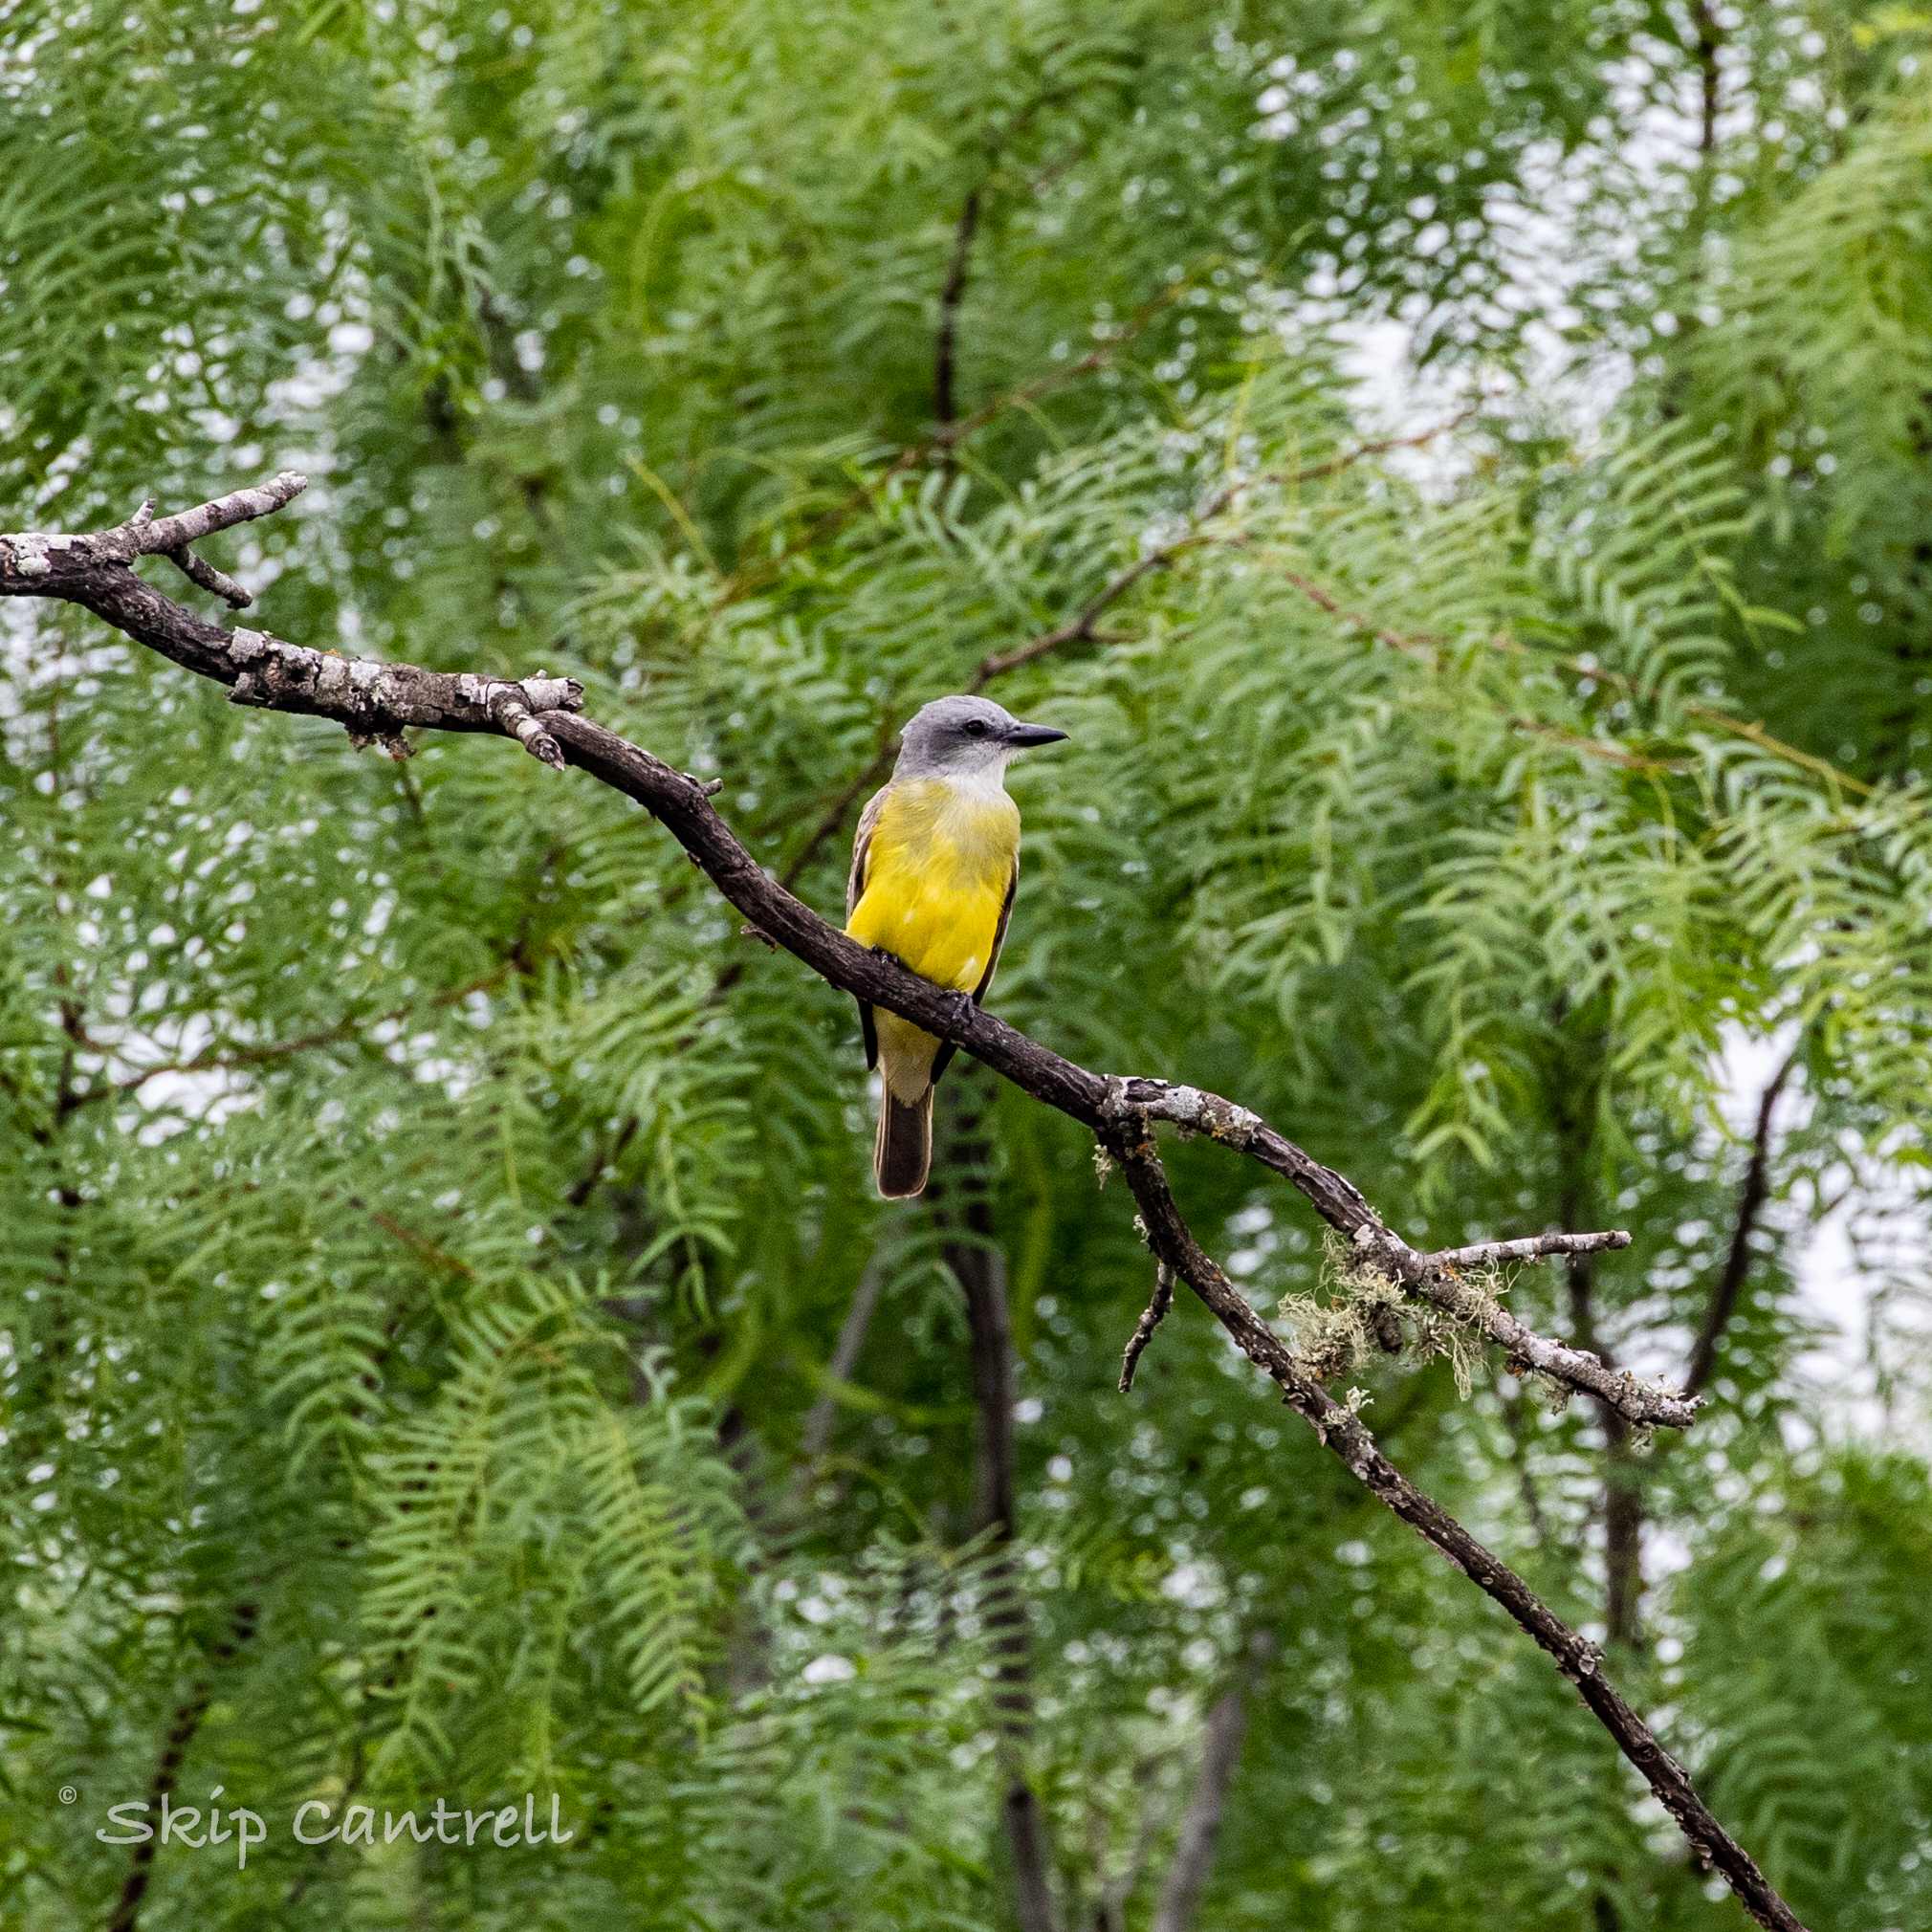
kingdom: Animalia
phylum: Chordata
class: Aves
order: Passeriformes
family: Tyrannidae
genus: Tyrannus
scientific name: Tyrannus couchii
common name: Couch's kingbird
